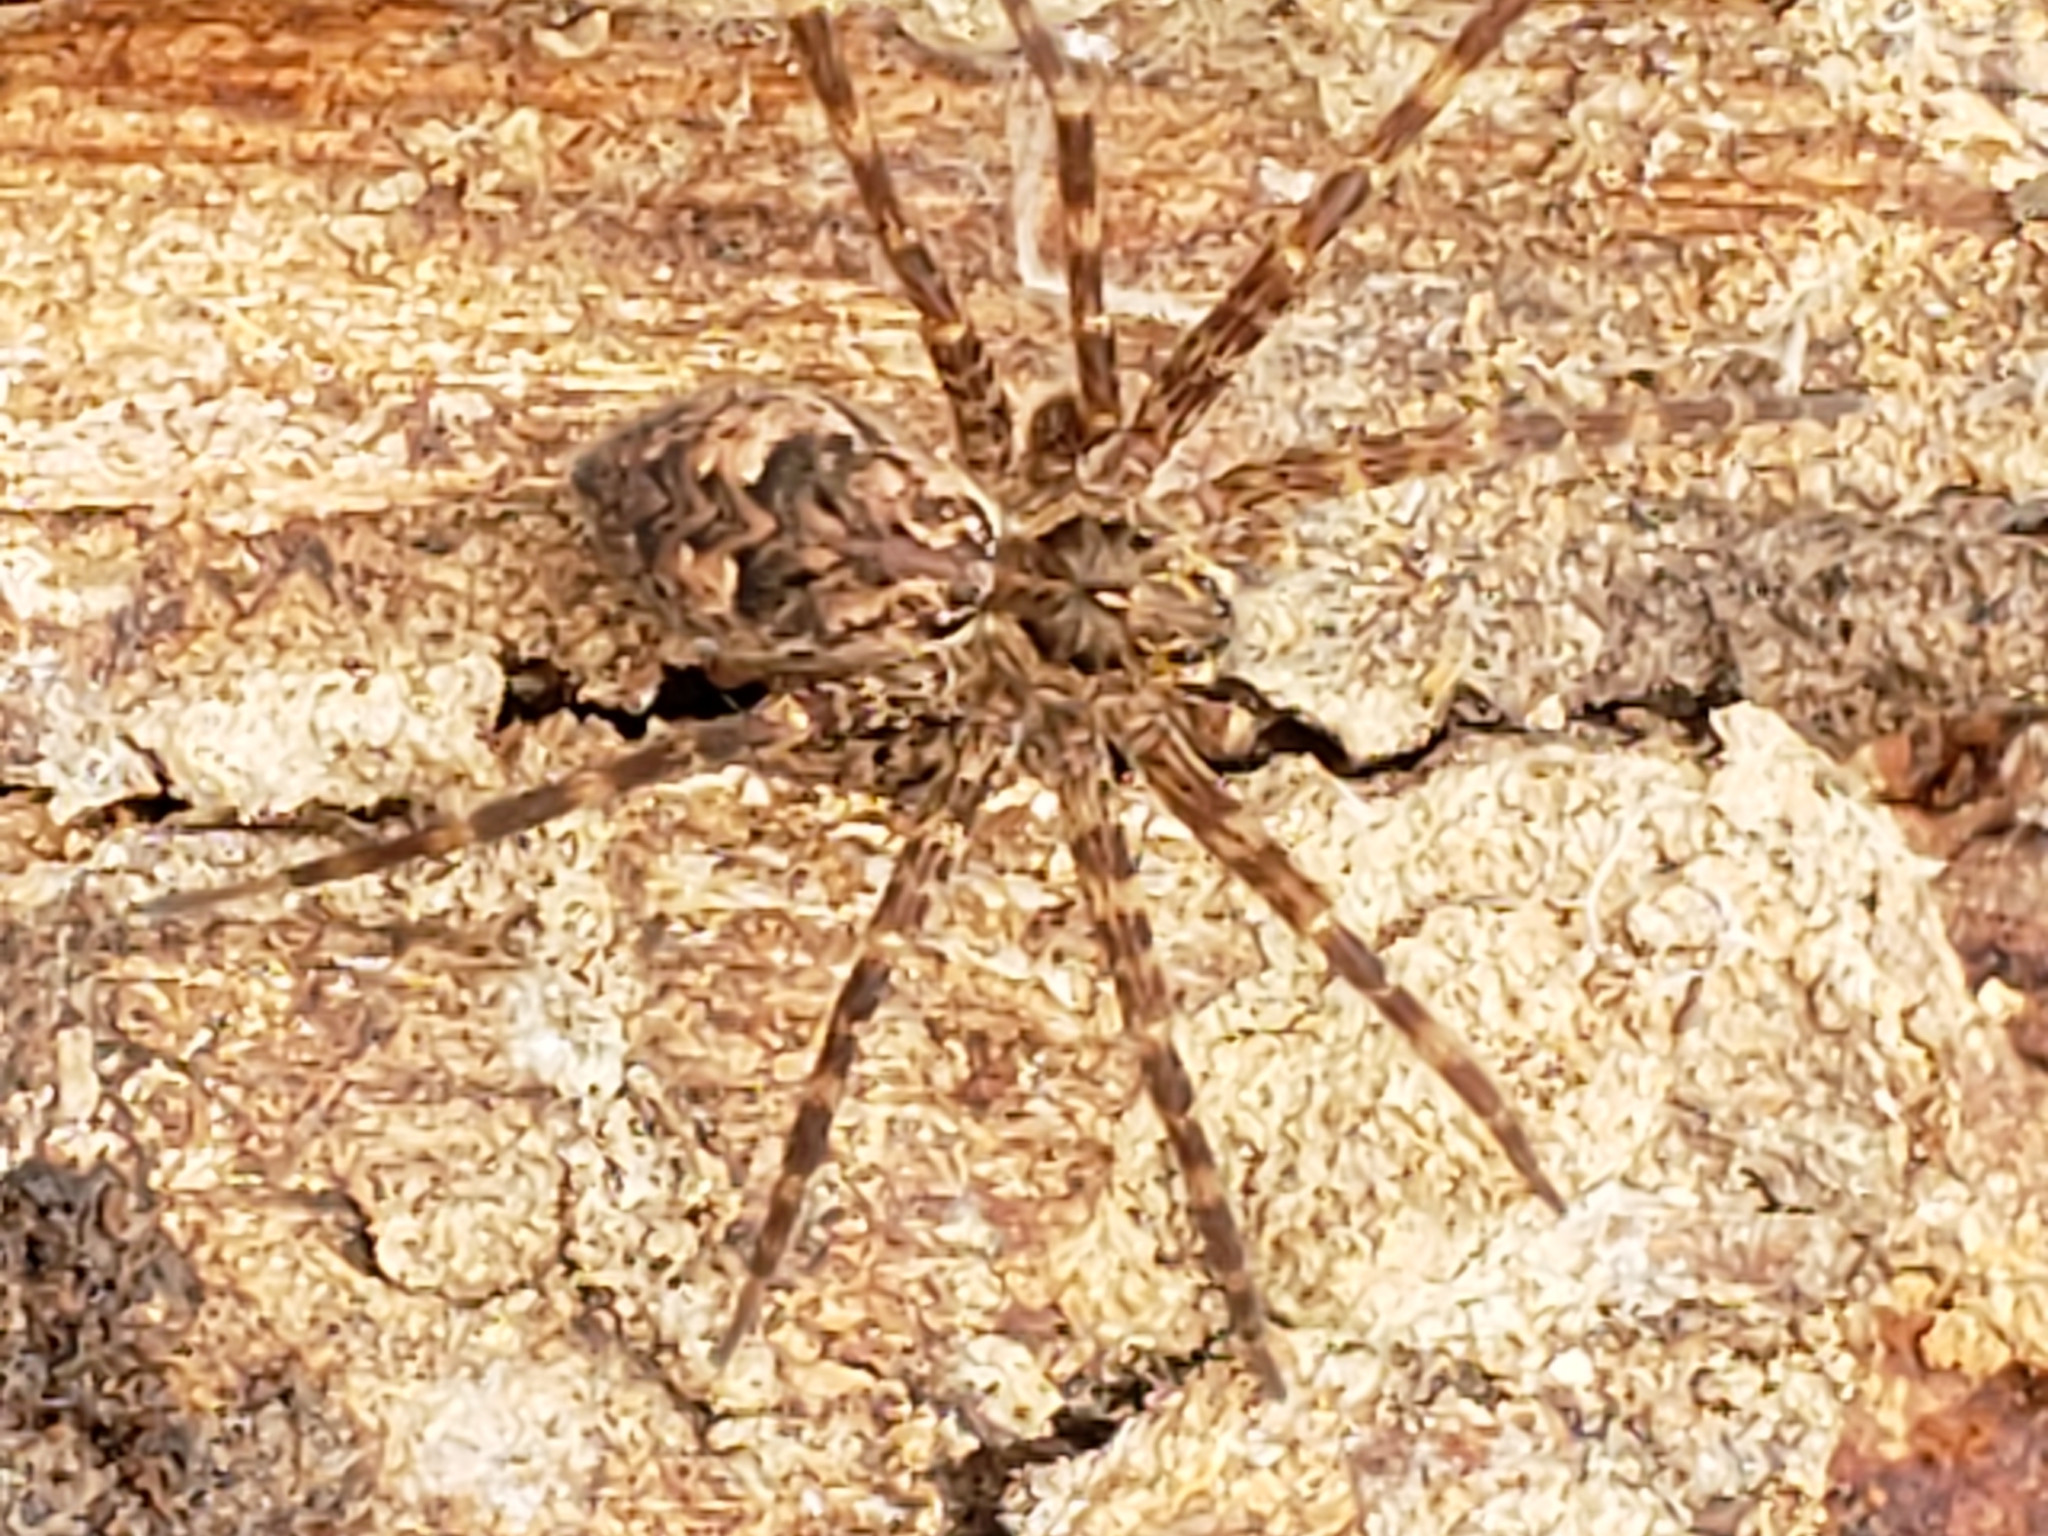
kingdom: Animalia
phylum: Arthropoda
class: Arachnida
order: Araneae
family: Pisauridae
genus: Dolomedes
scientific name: Dolomedes tenebrosus
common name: Dark fishing spider
